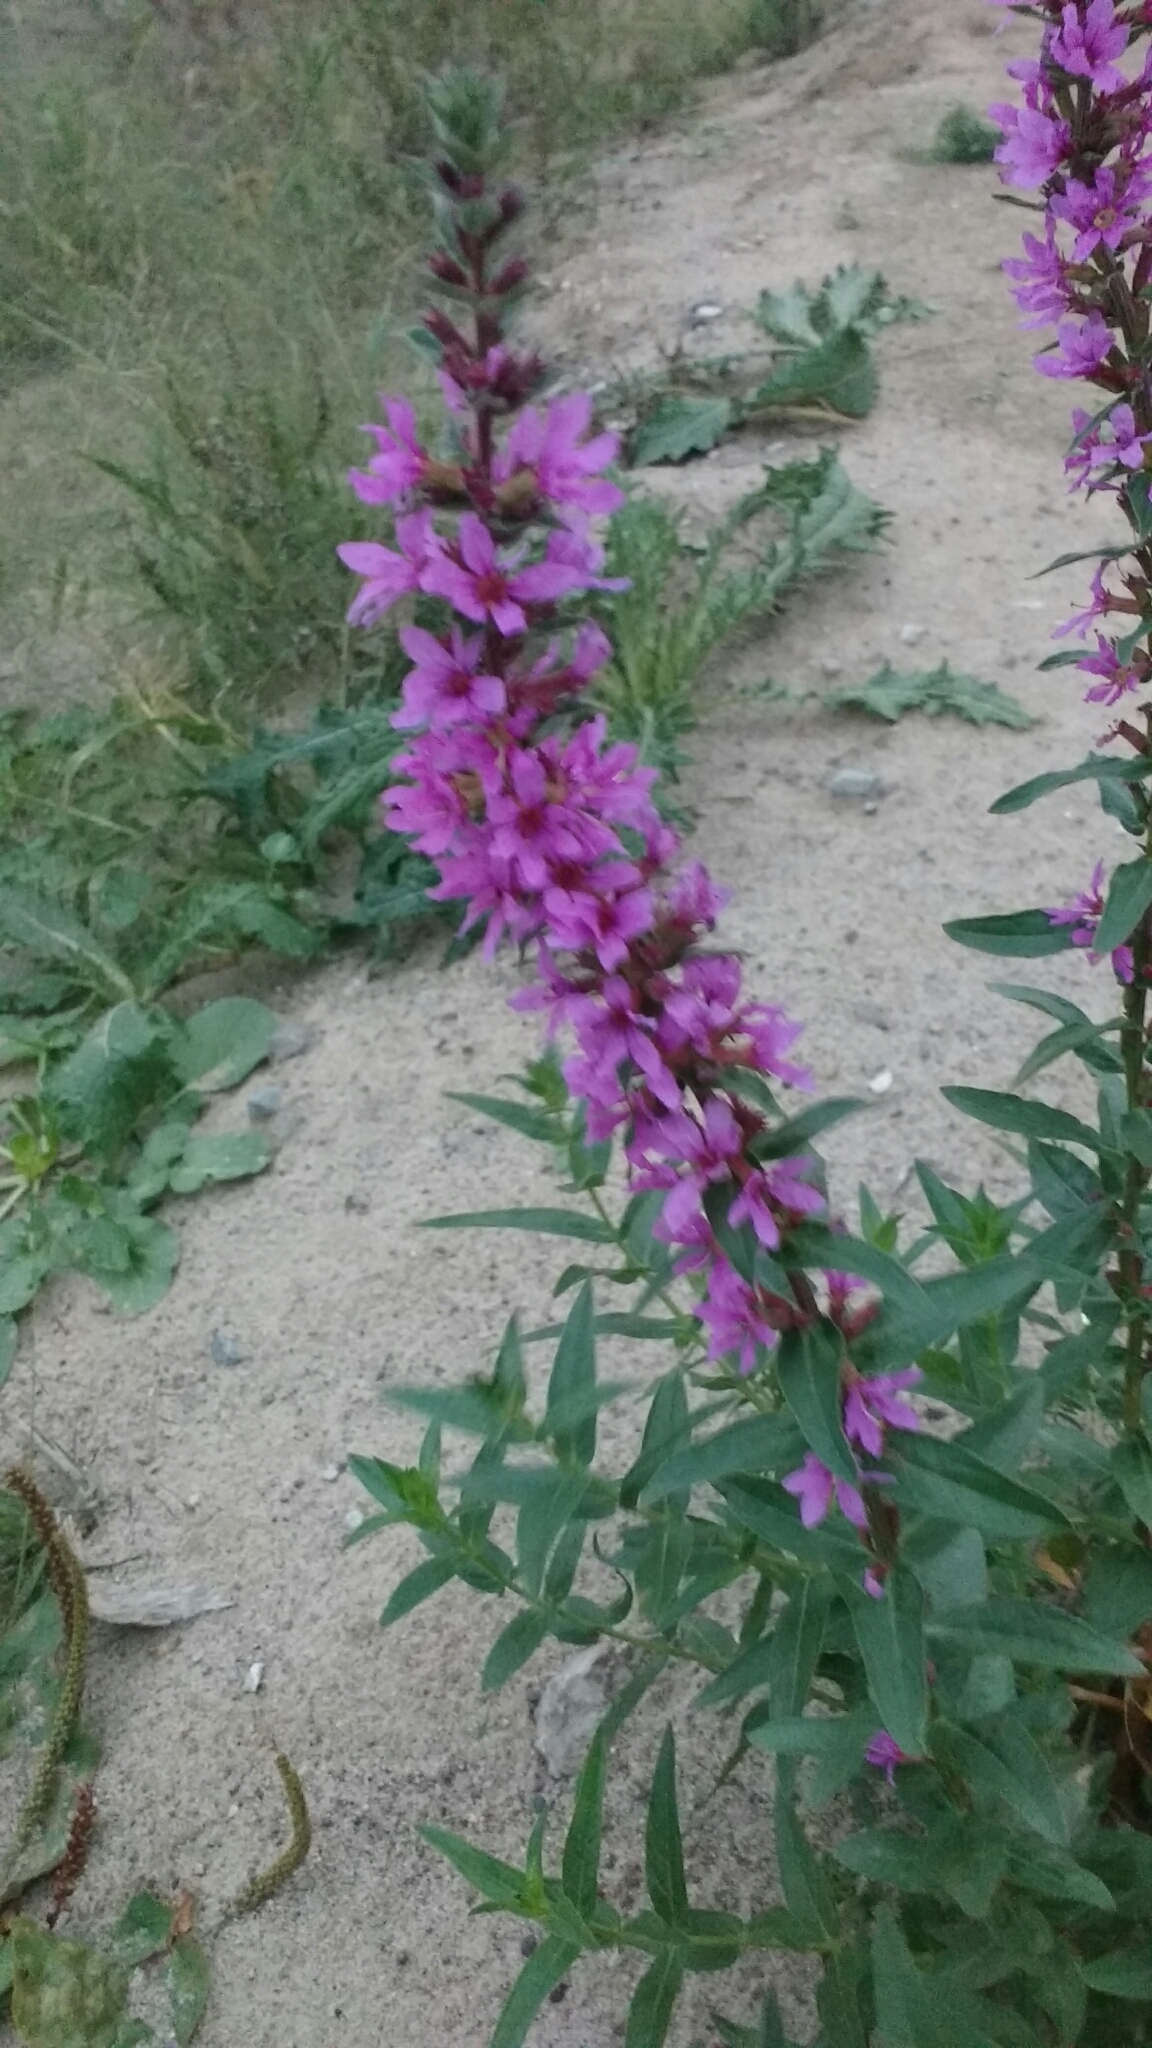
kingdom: Plantae
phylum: Tracheophyta
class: Magnoliopsida
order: Myrtales
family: Lythraceae
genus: Lythrum
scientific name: Lythrum salicaria
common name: Purple loosestrife
